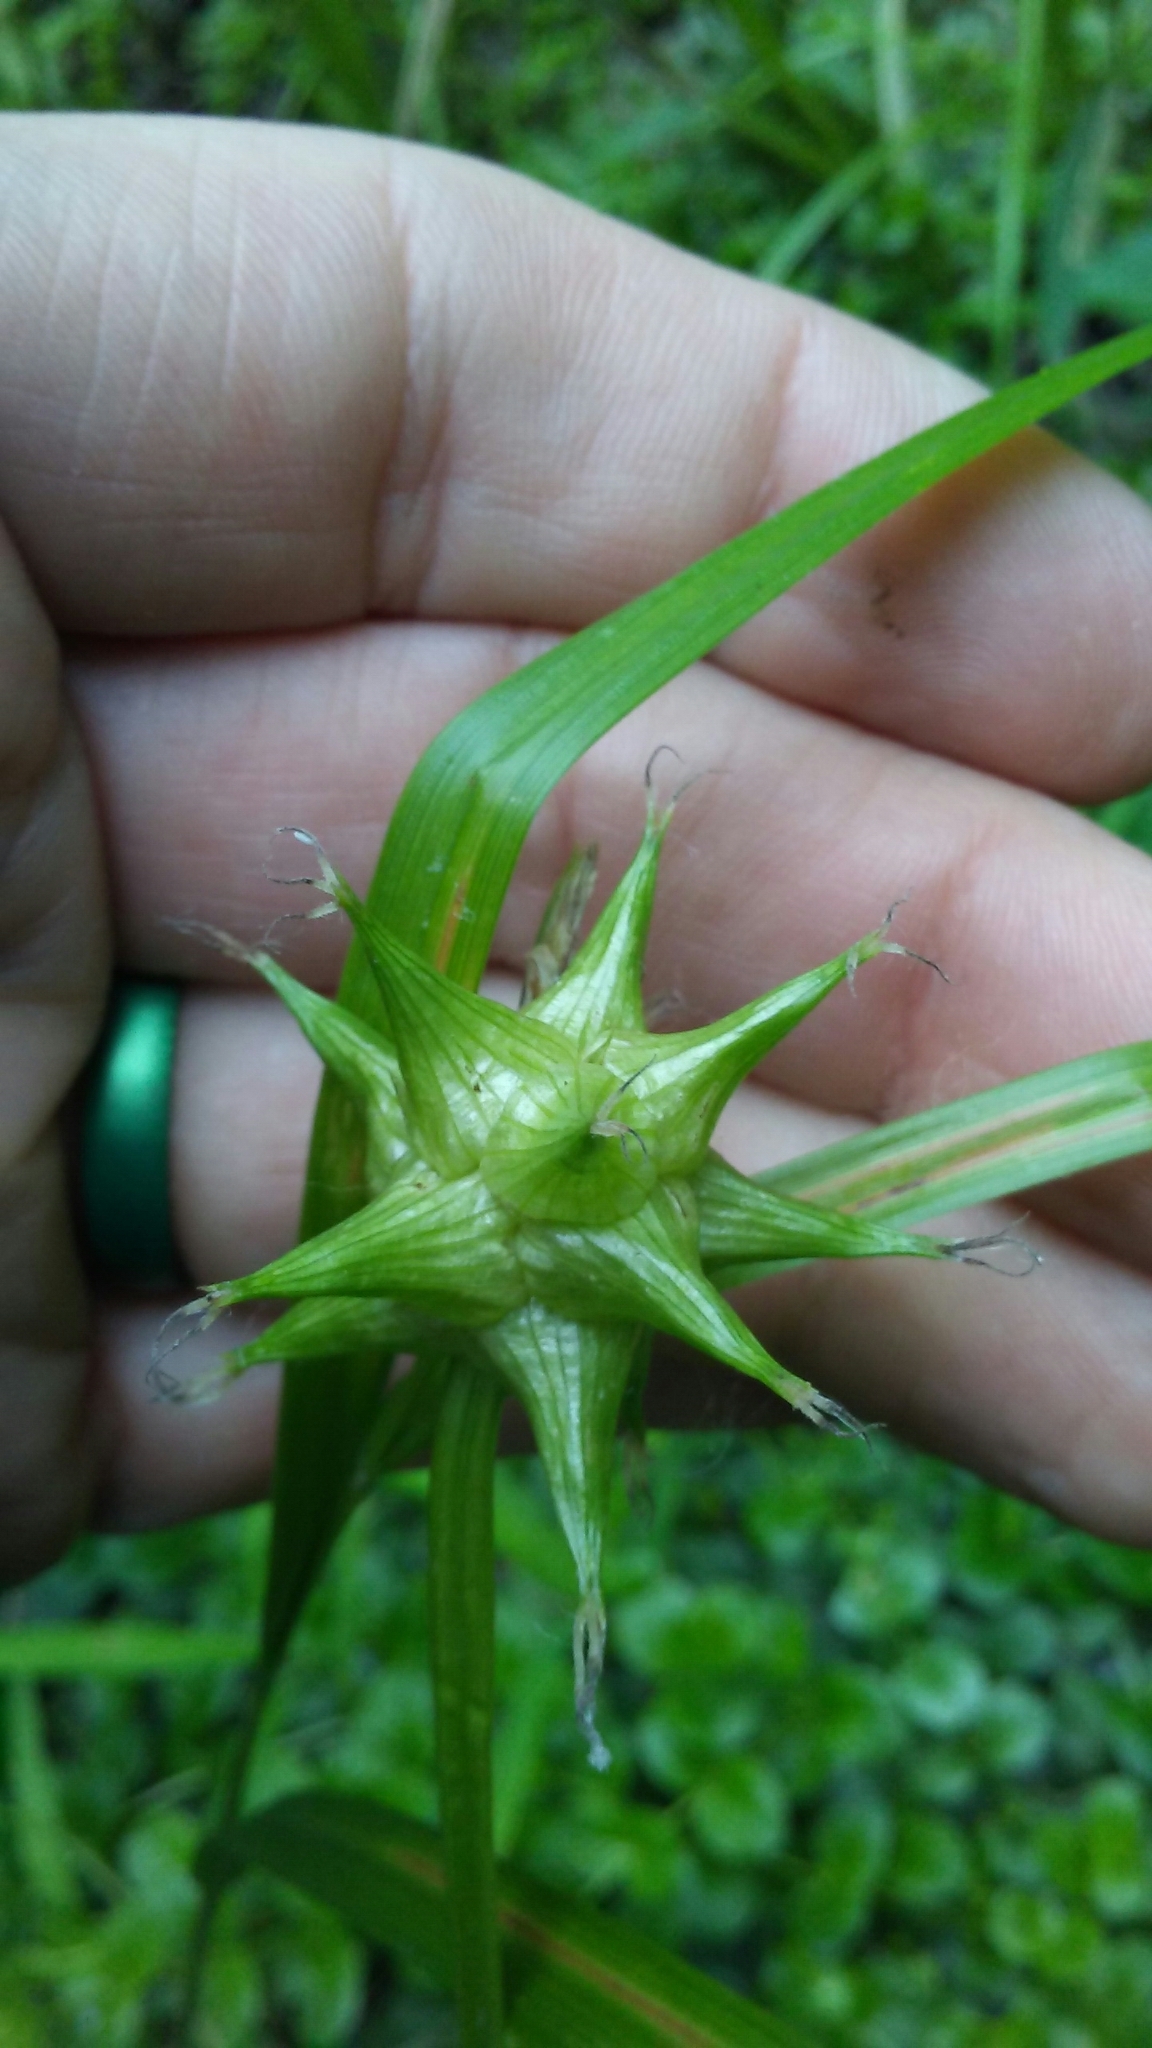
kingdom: Plantae
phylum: Tracheophyta
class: Liliopsida
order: Poales
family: Cyperaceae
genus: Carex
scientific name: Carex grayi
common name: Asa gray's sedge
